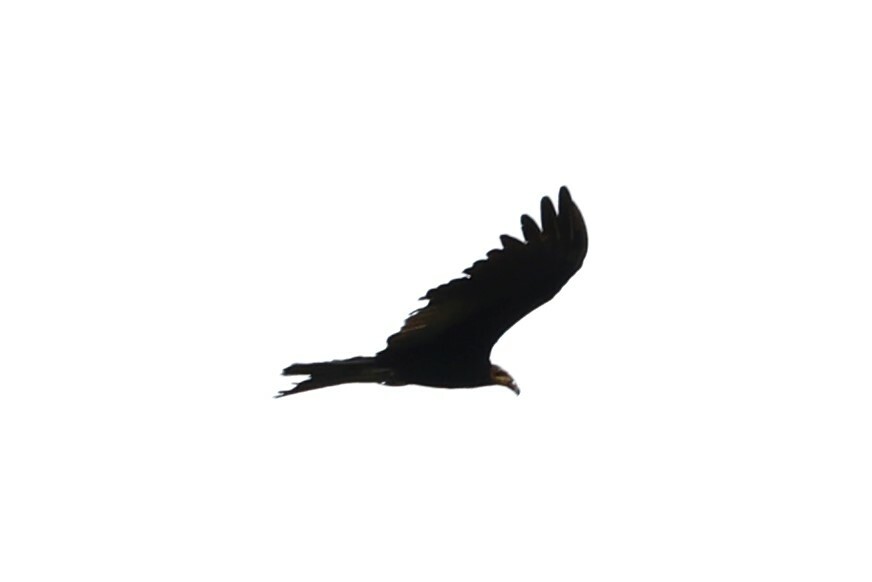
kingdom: Animalia
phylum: Chordata
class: Aves
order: Accipitriformes
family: Cathartidae
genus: Cathartes
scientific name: Cathartes melambrotus
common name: Greater yellow-headed vulture
